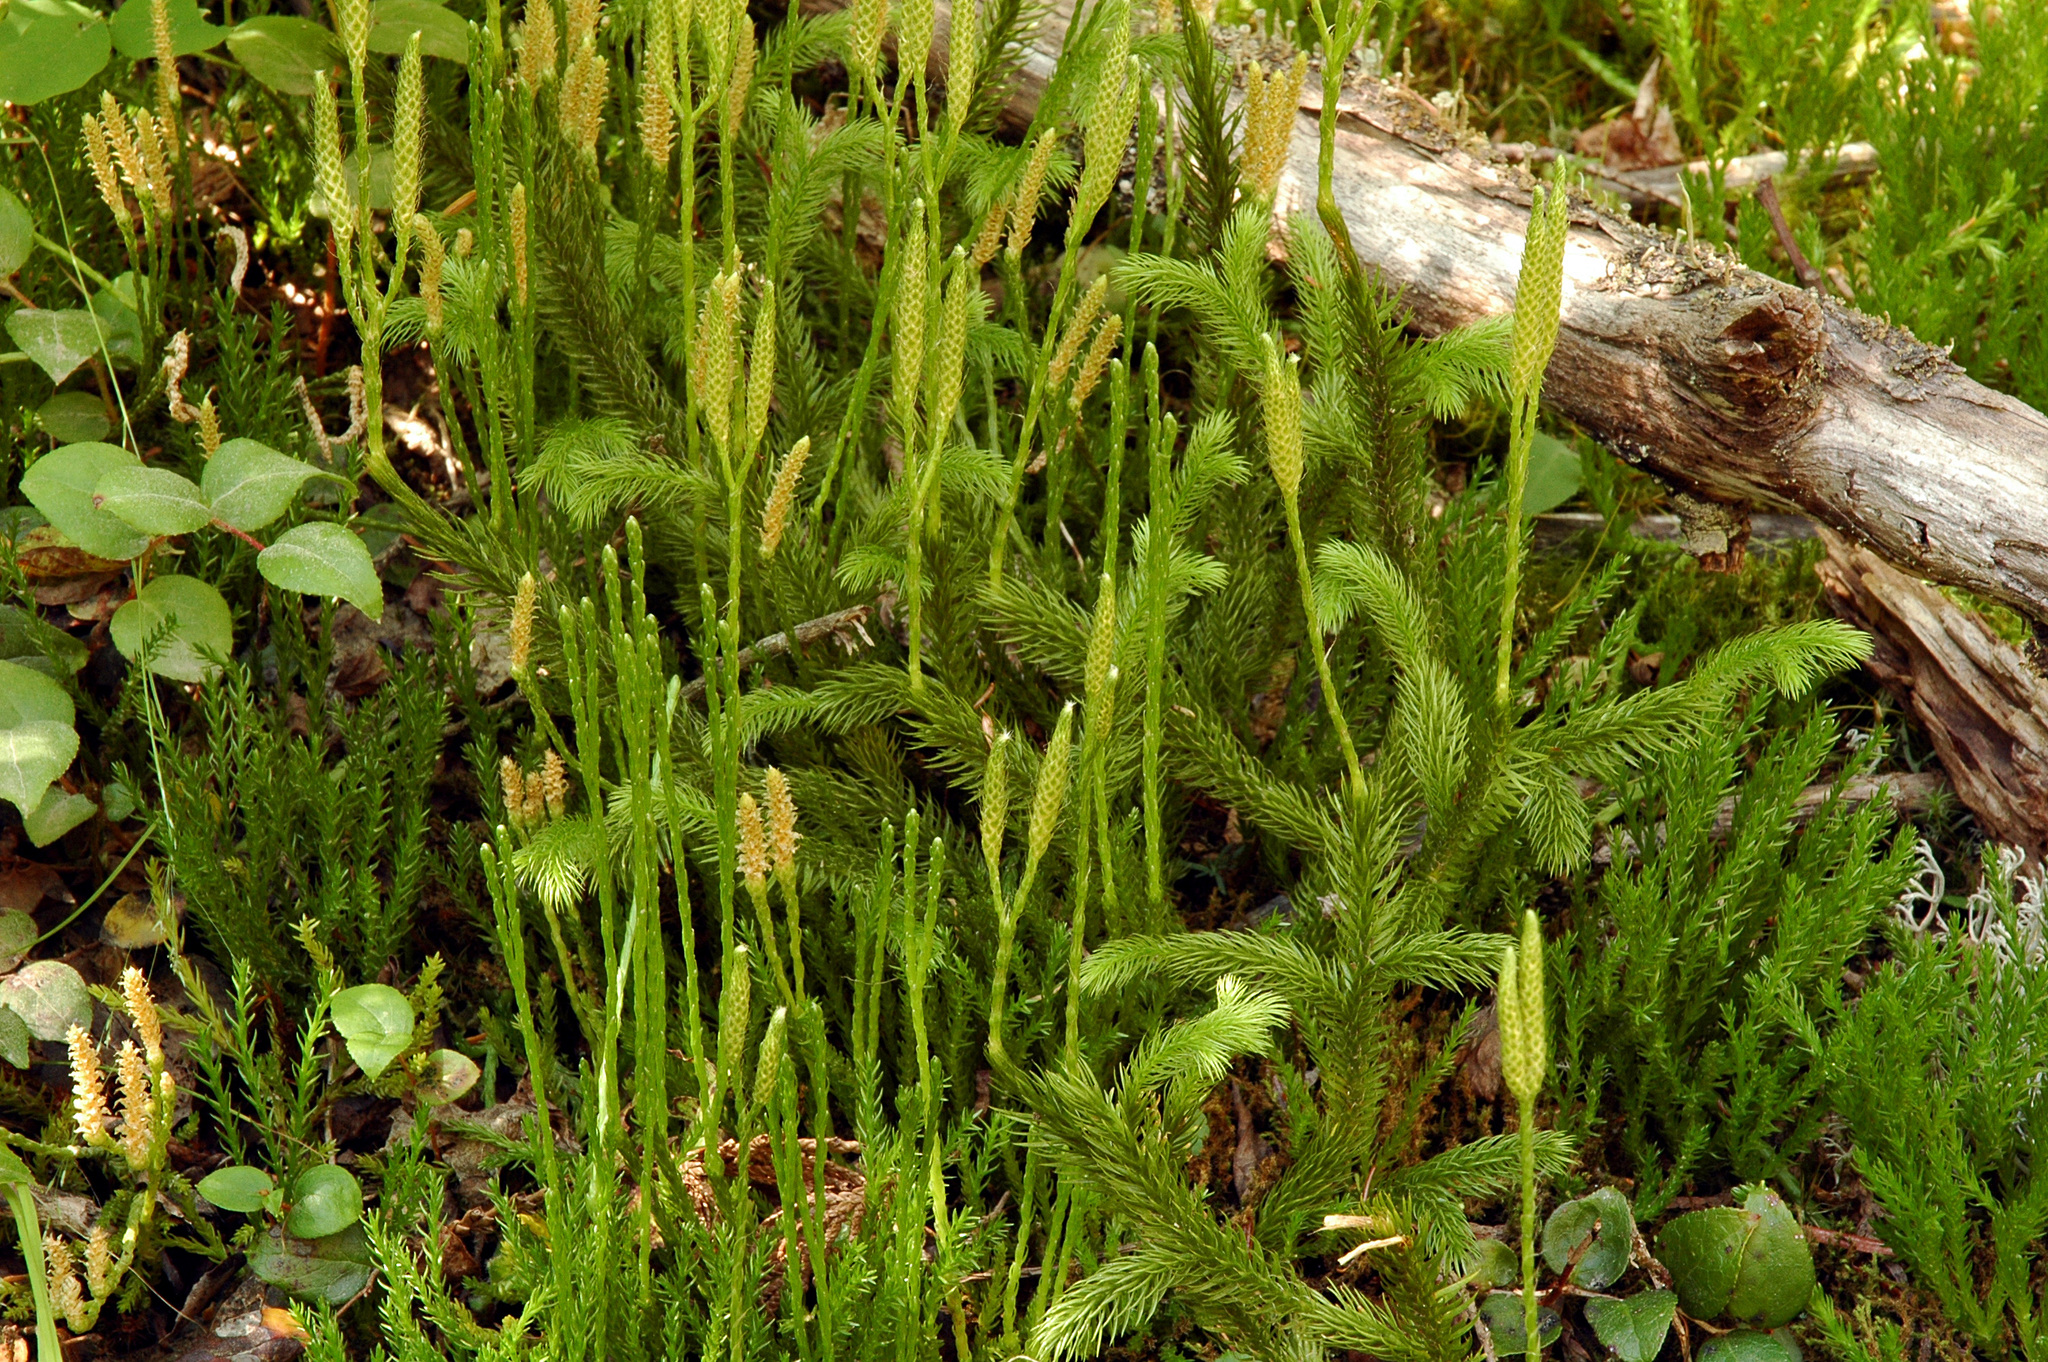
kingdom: Plantae
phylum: Tracheophyta
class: Lycopodiopsida
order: Lycopodiales
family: Lycopodiaceae
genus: Diphasiastrum
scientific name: Diphasiastrum sitchense
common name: Alaska clubmoss
